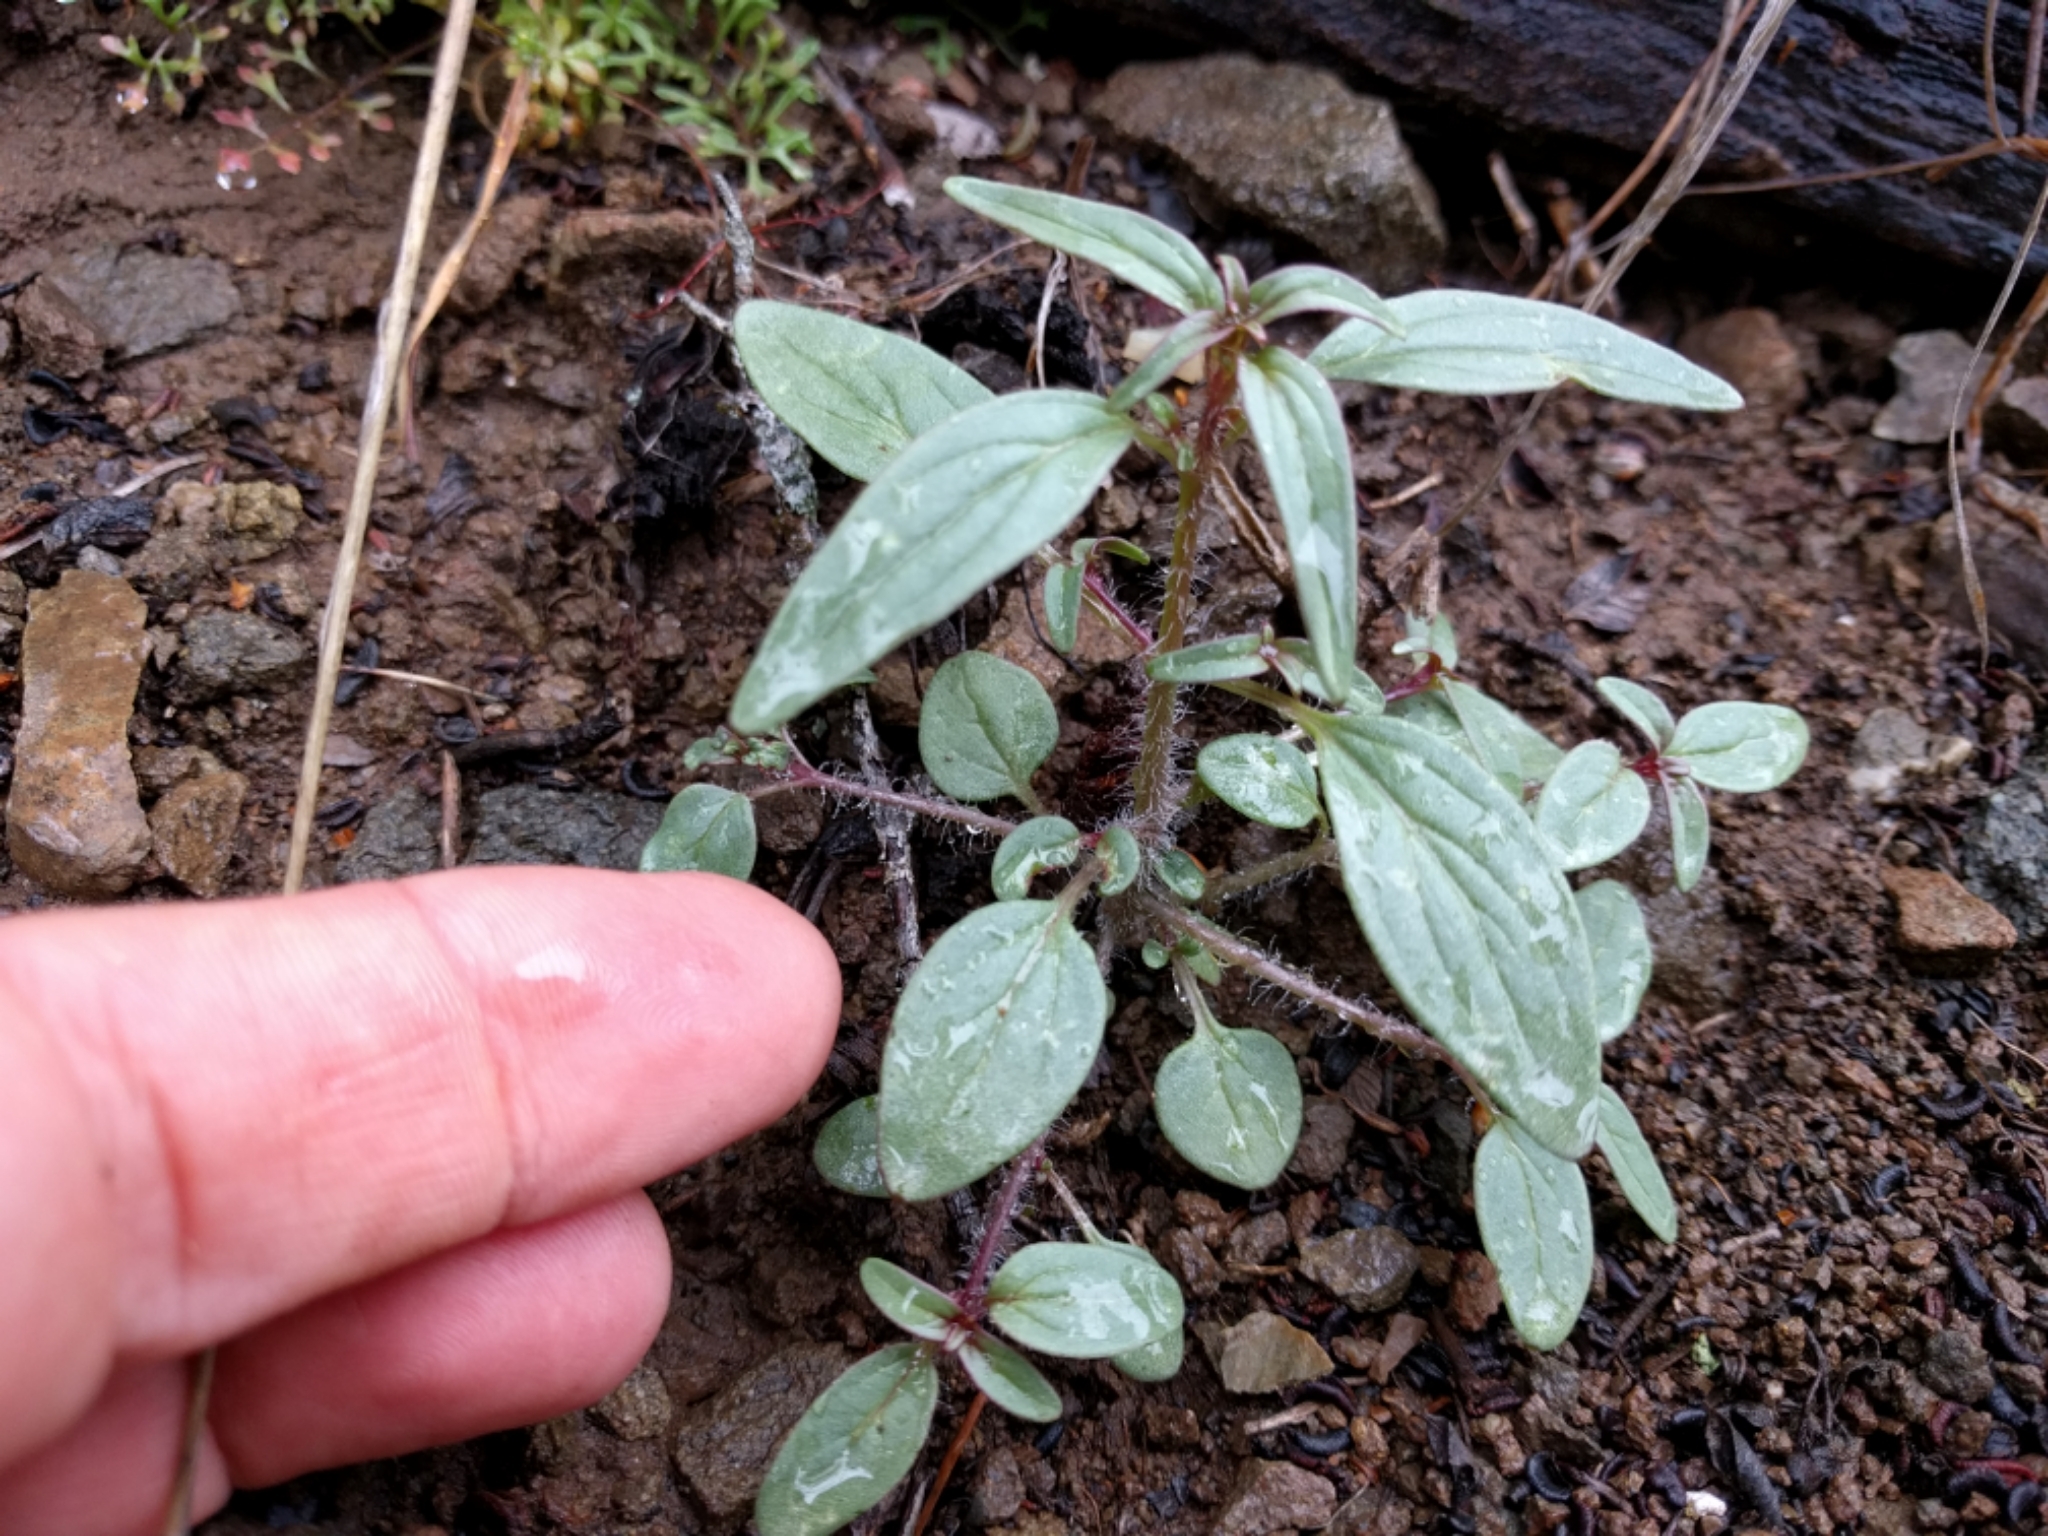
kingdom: Plantae
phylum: Tracheophyta
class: Magnoliopsida
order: Lamiales
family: Plantaginaceae
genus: Sairocarpus
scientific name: Sairocarpus vexillocalyculatus
